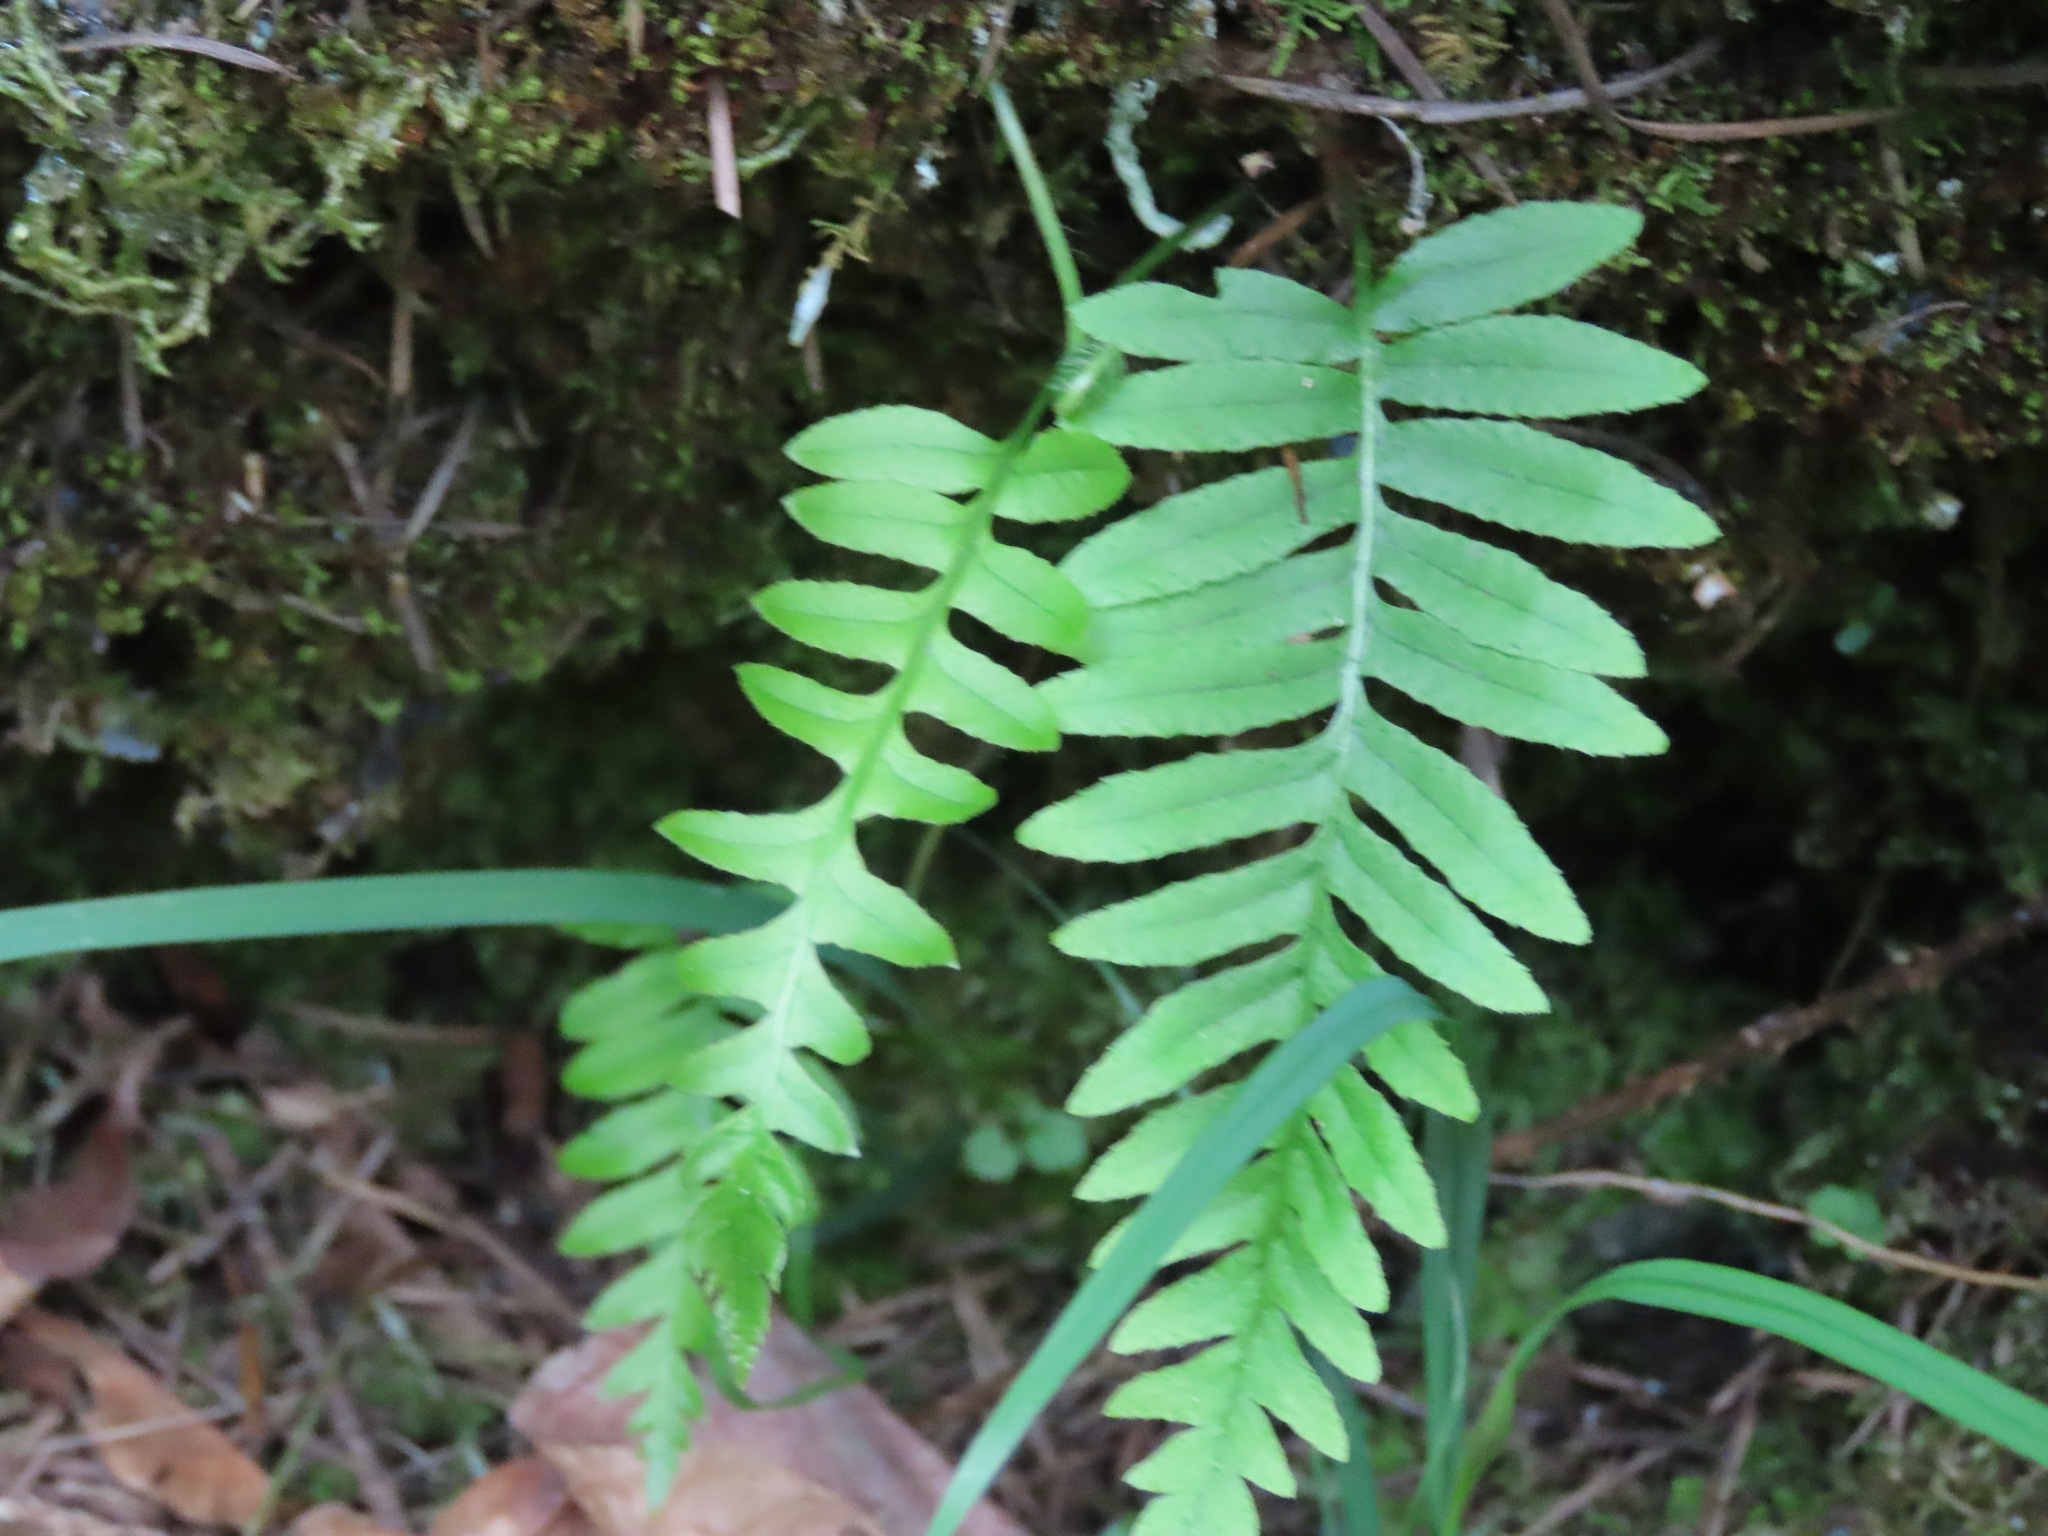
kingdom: Plantae
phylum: Tracheophyta
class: Polypodiopsida
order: Polypodiales
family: Polypodiaceae
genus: Polypodium
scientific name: Polypodium glycyrrhiza
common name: Licorice fern
